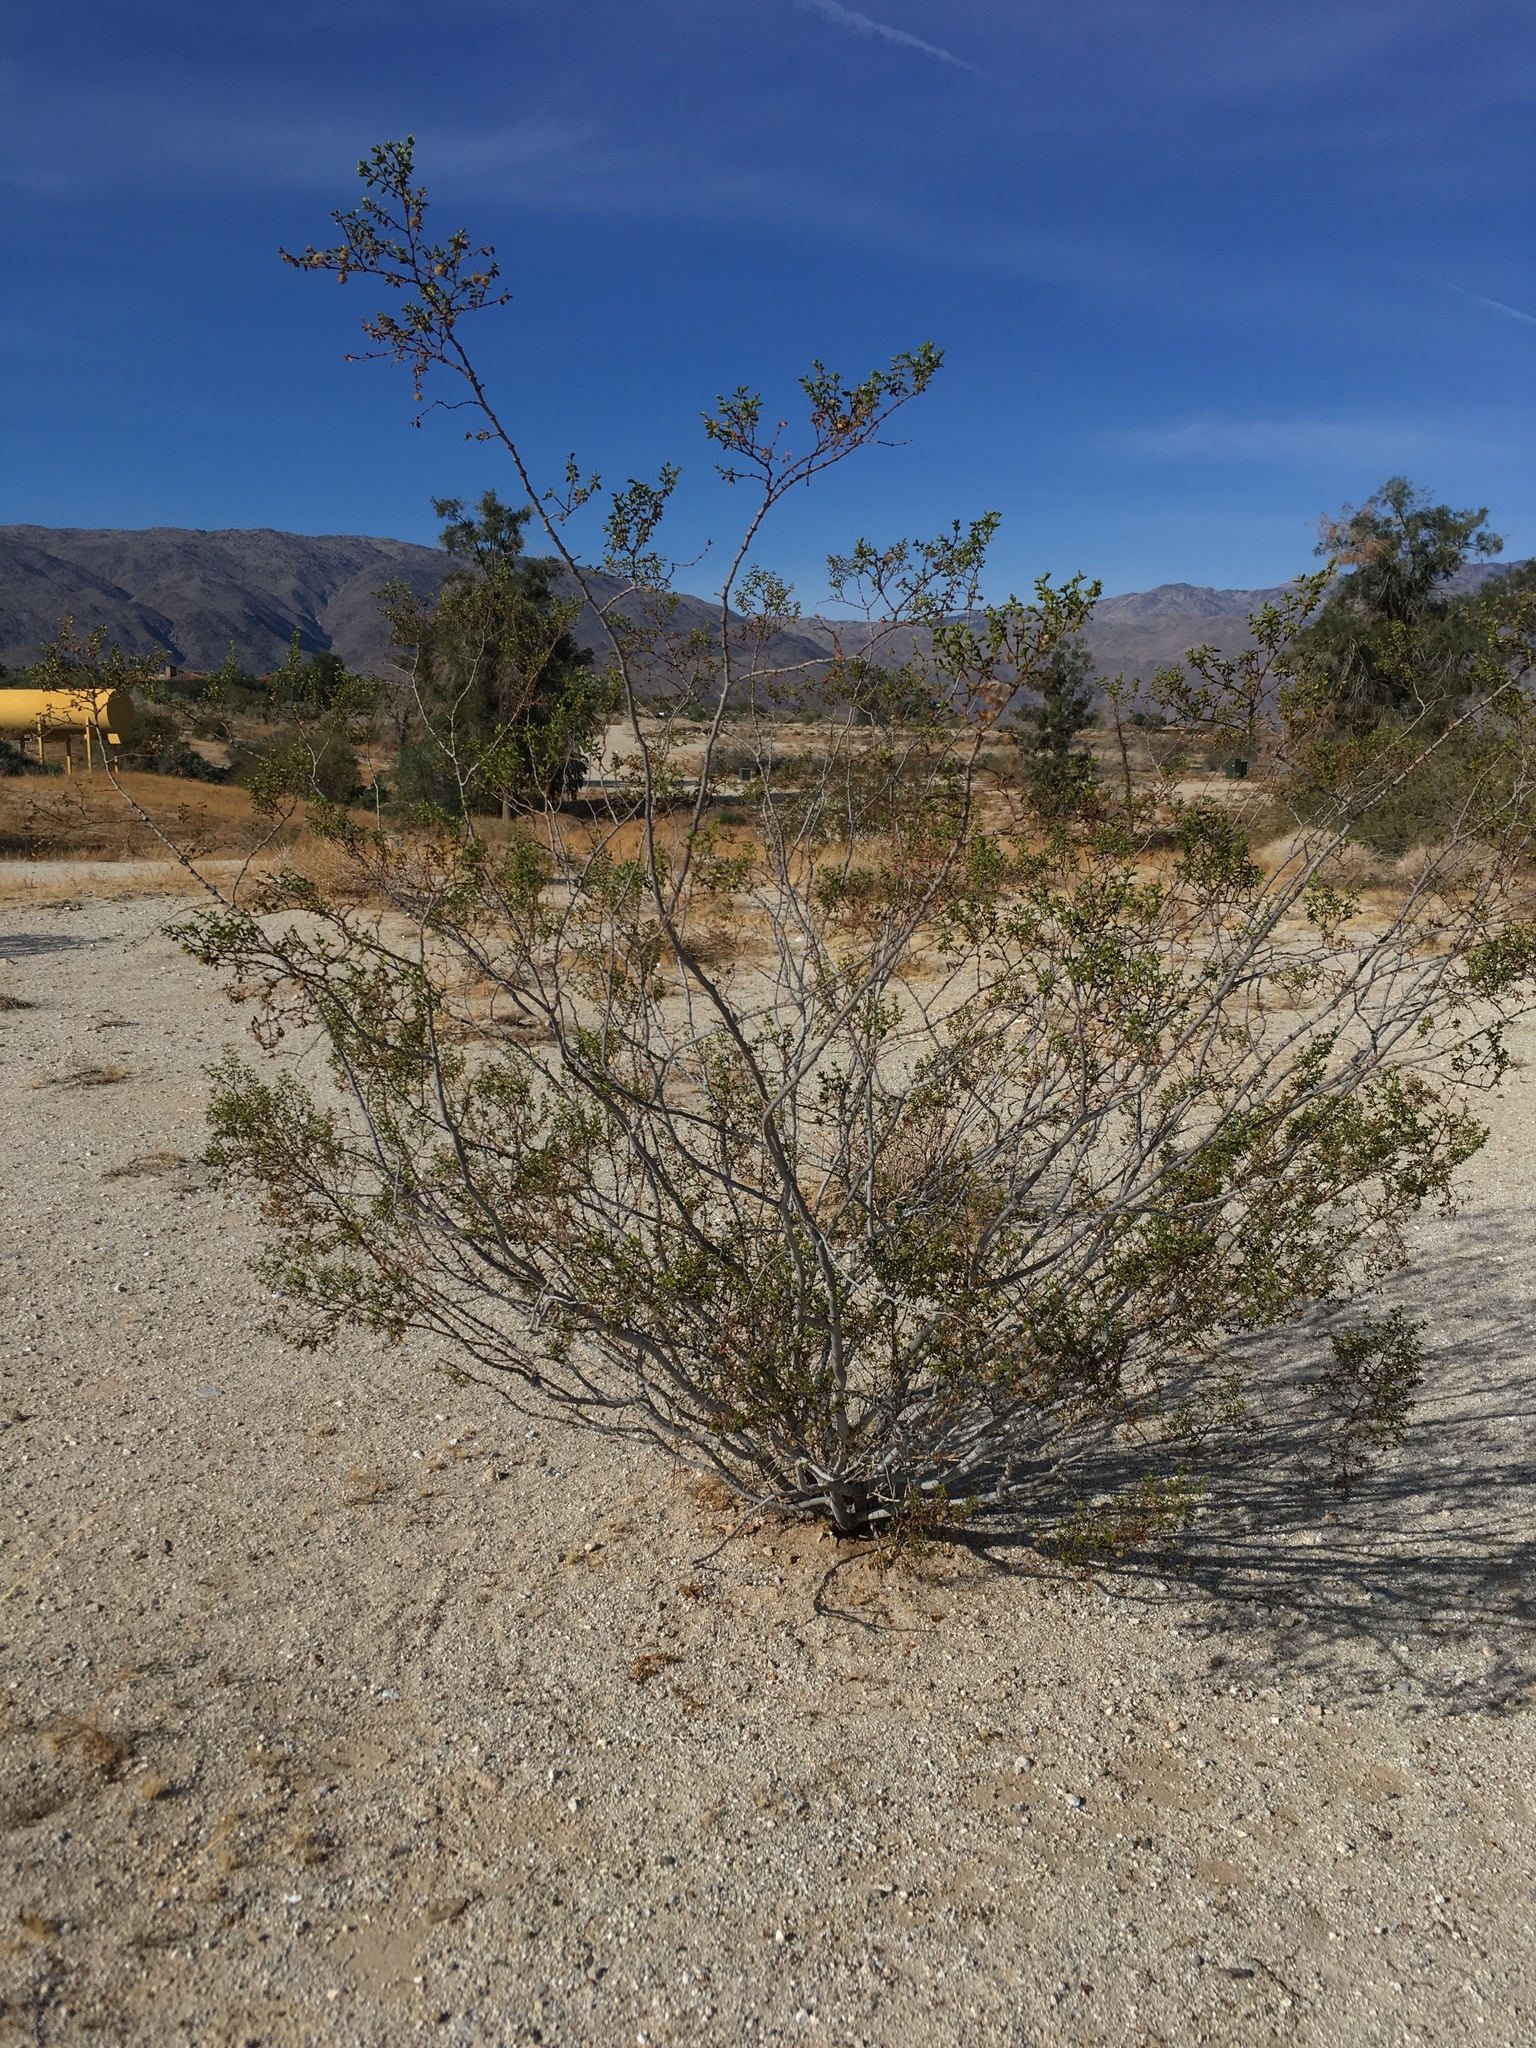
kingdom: Plantae
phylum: Tracheophyta
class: Magnoliopsida
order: Zygophyllales
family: Zygophyllaceae
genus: Larrea
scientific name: Larrea tridentata
